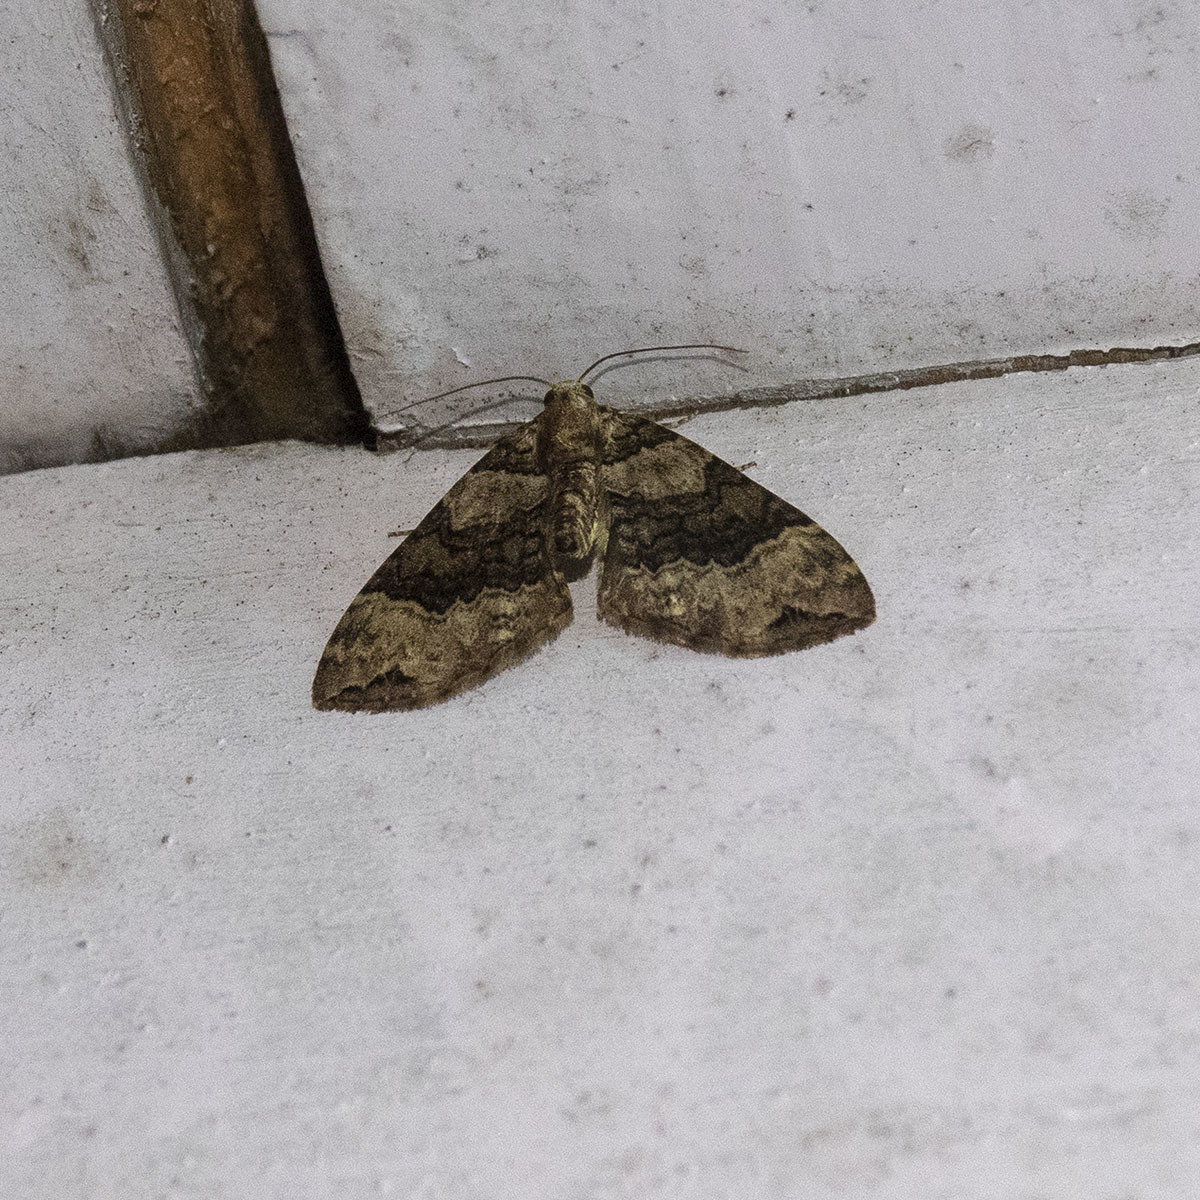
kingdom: Animalia
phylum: Arthropoda
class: Insecta
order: Lepidoptera
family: Geometridae
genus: Xanthorhoe
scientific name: Xanthorhoe saturata
